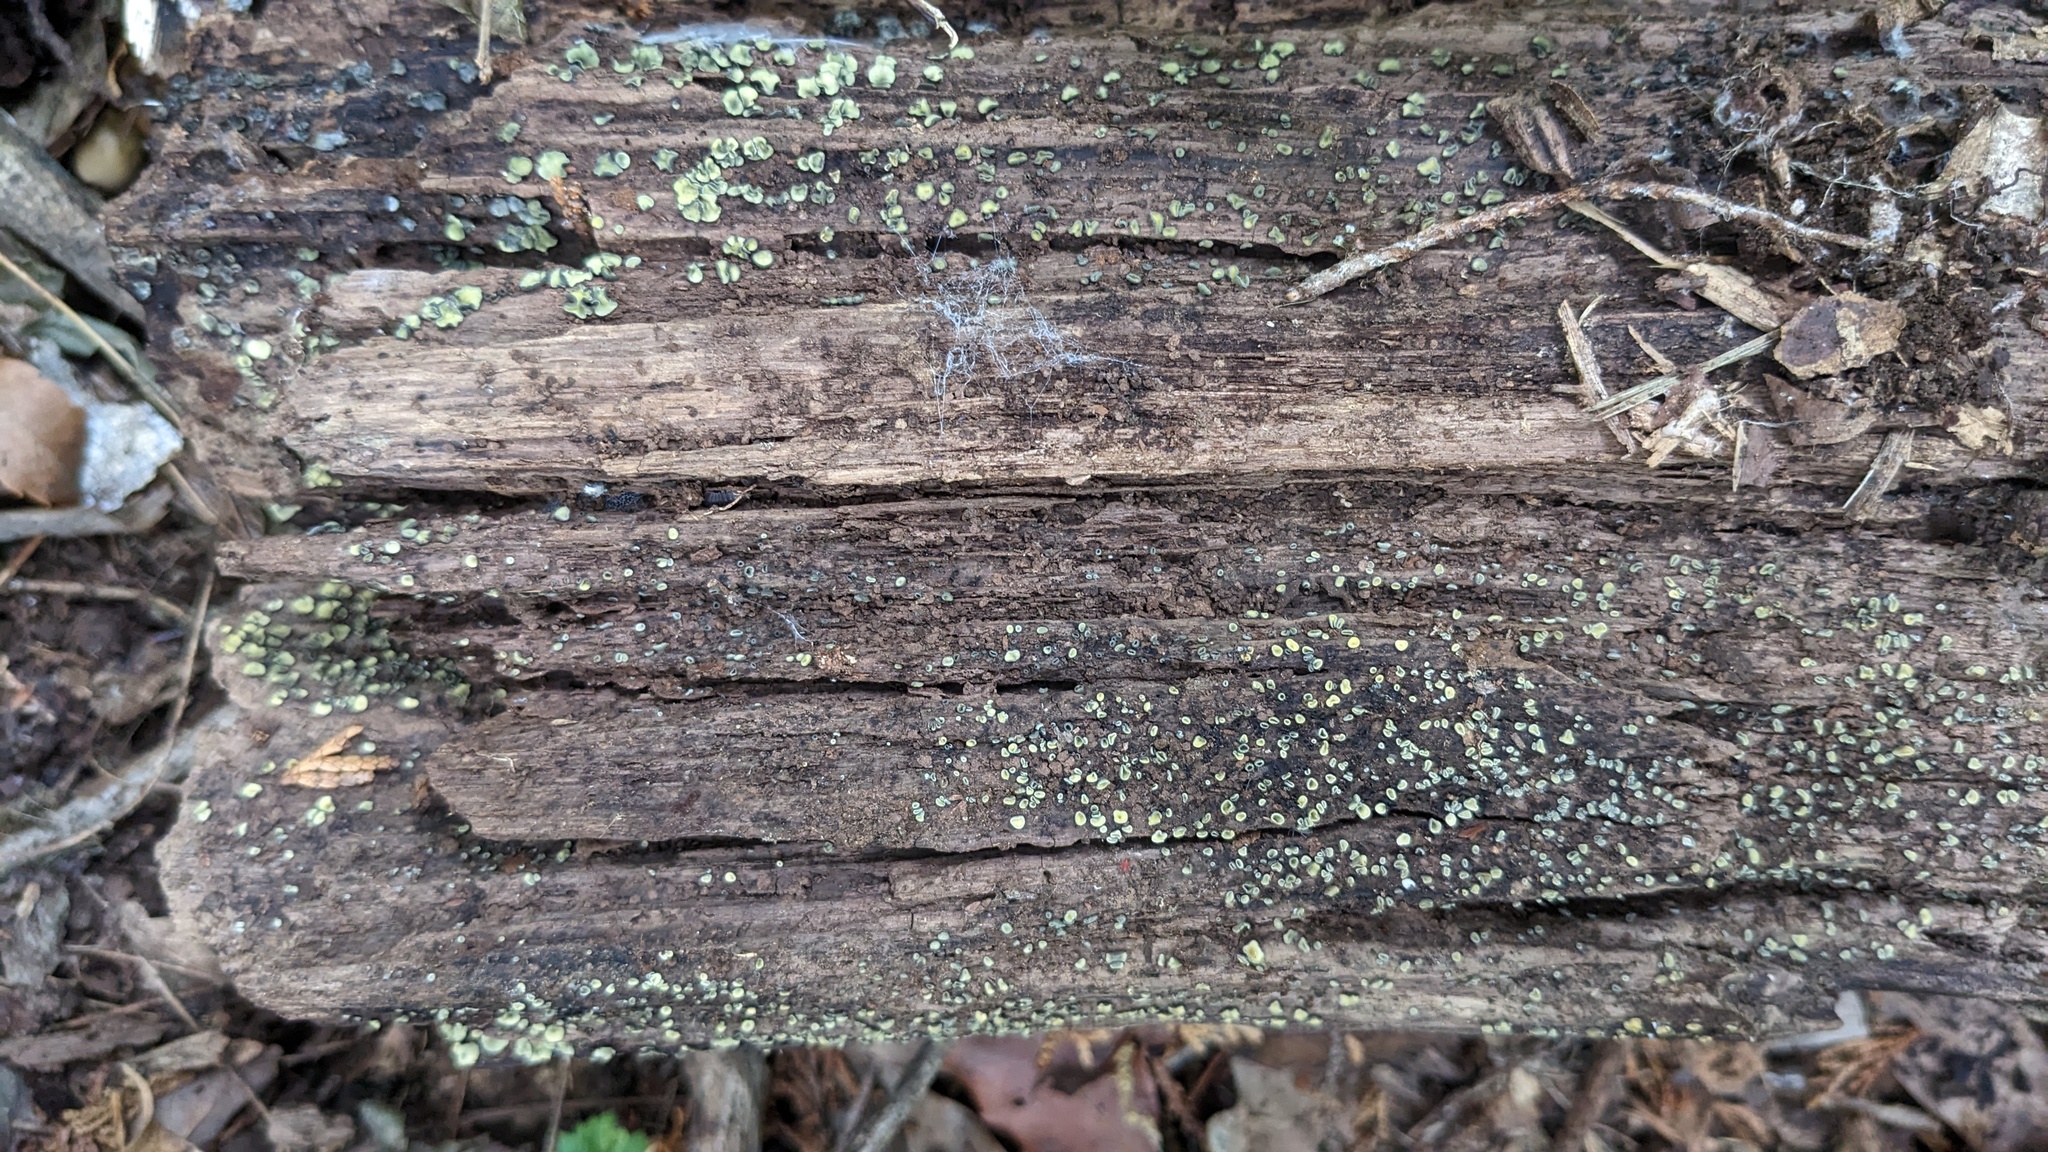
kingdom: Fungi
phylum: Ascomycota
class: Leotiomycetes
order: Helotiales
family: Chlorospleniaceae
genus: Chlorosplenium
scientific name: Chlorosplenium chlora
